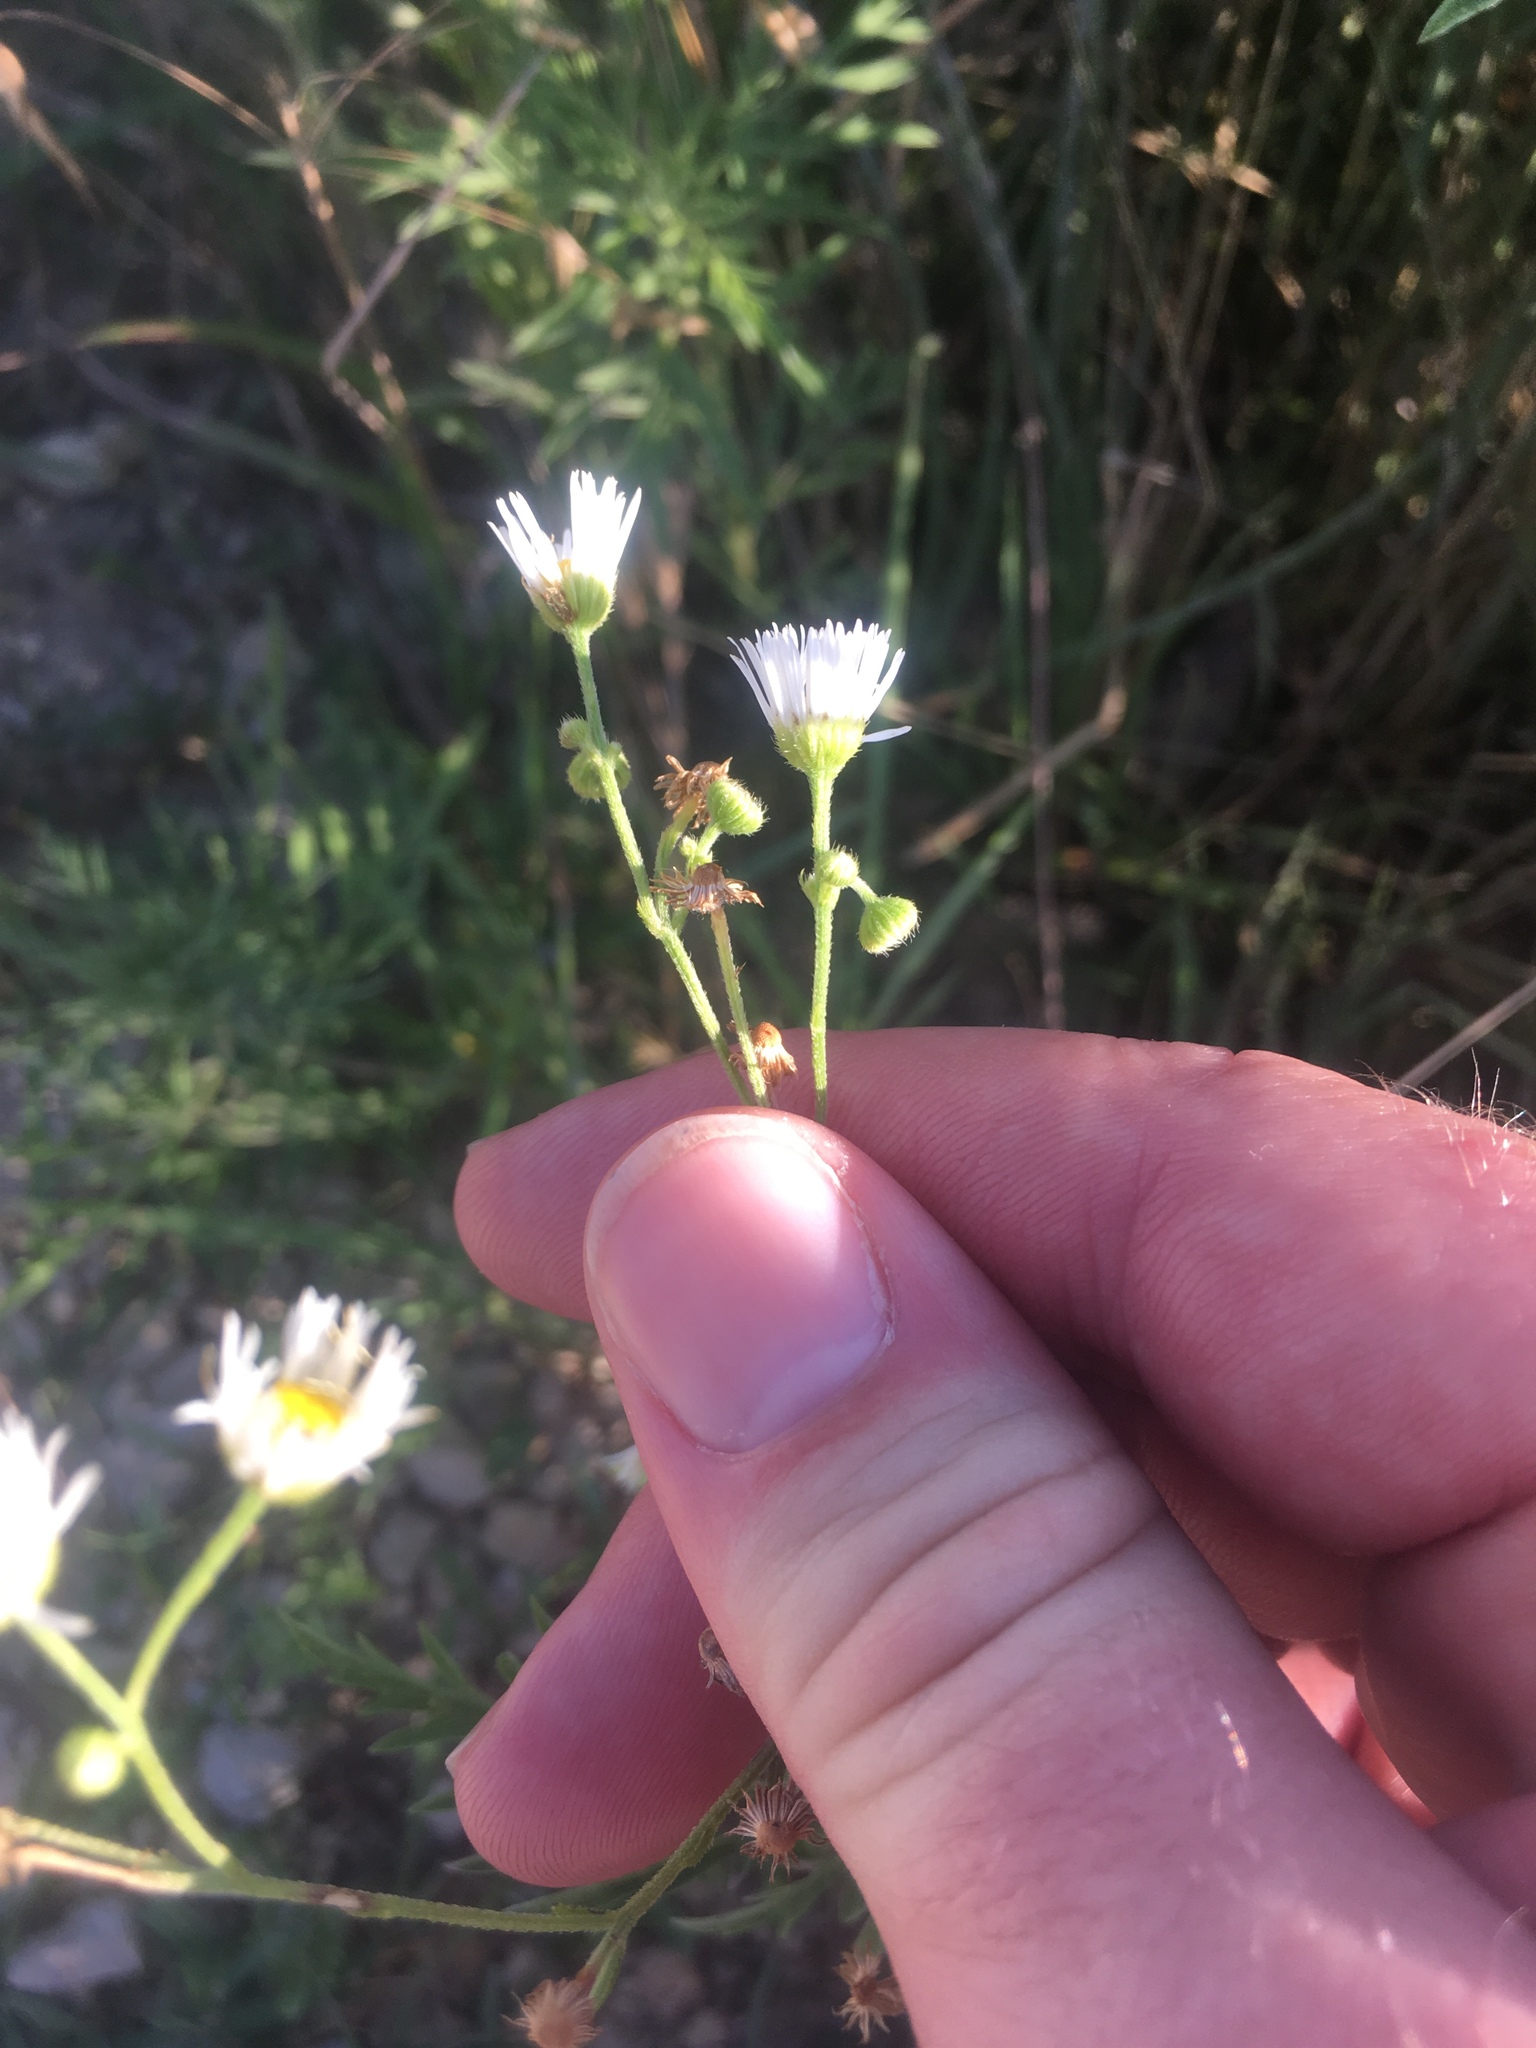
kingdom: Plantae
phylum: Tracheophyta
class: Magnoliopsida
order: Asterales
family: Asteraceae
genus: Erigeron
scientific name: Erigeron strigosus
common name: Common eastern fleabane
